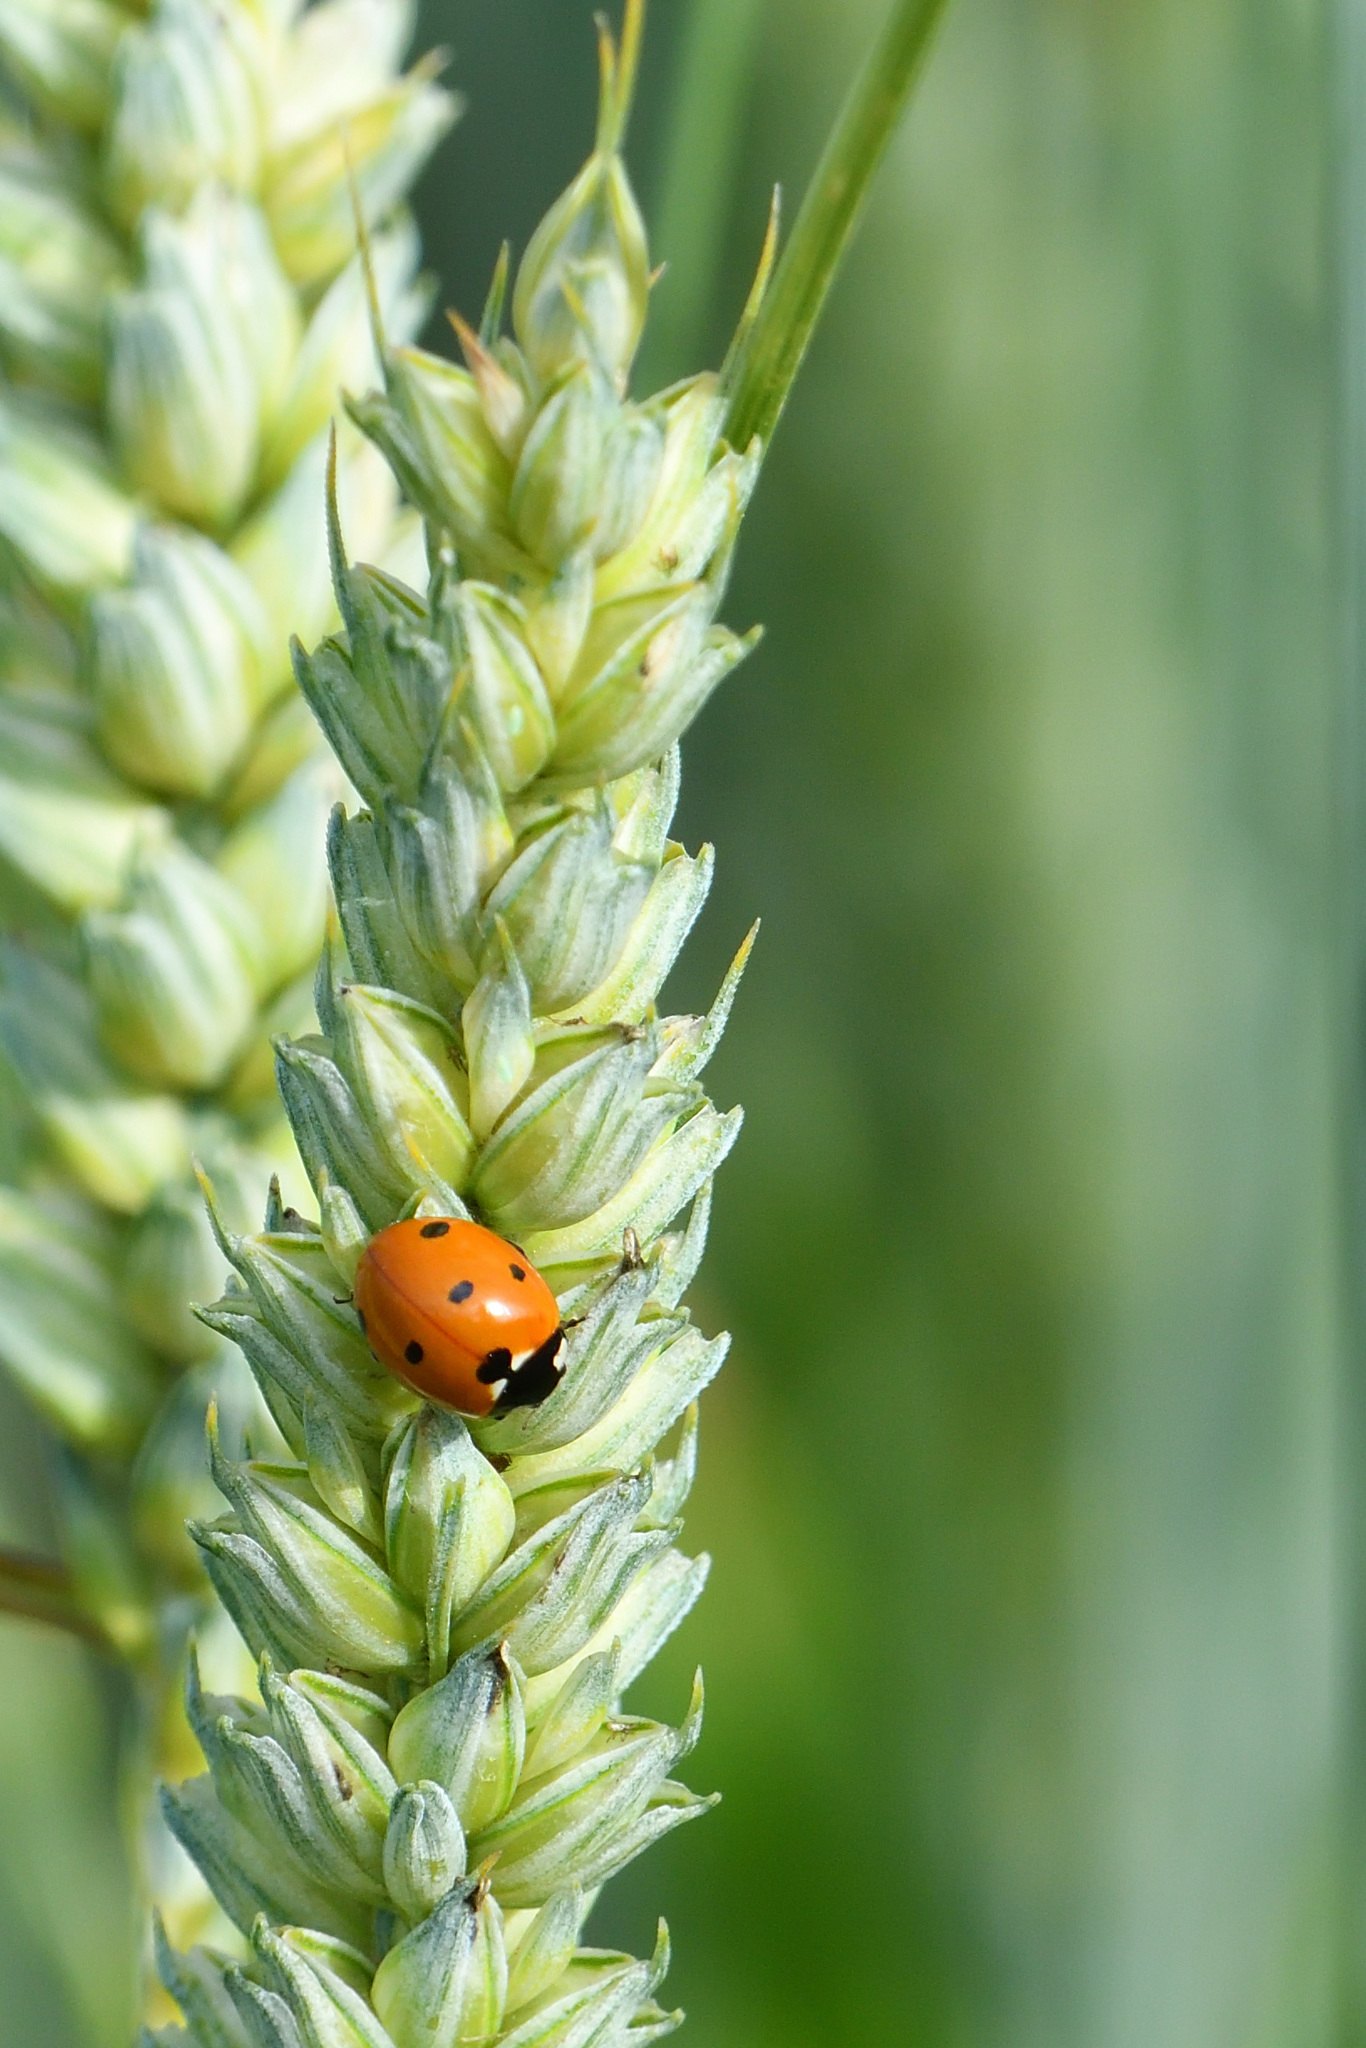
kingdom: Animalia
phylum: Arthropoda
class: Insecta
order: Coleoptera
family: Coccinellidae
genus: Coccinella
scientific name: Coccinella septempunctata
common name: Sevenspotted lady beetle
